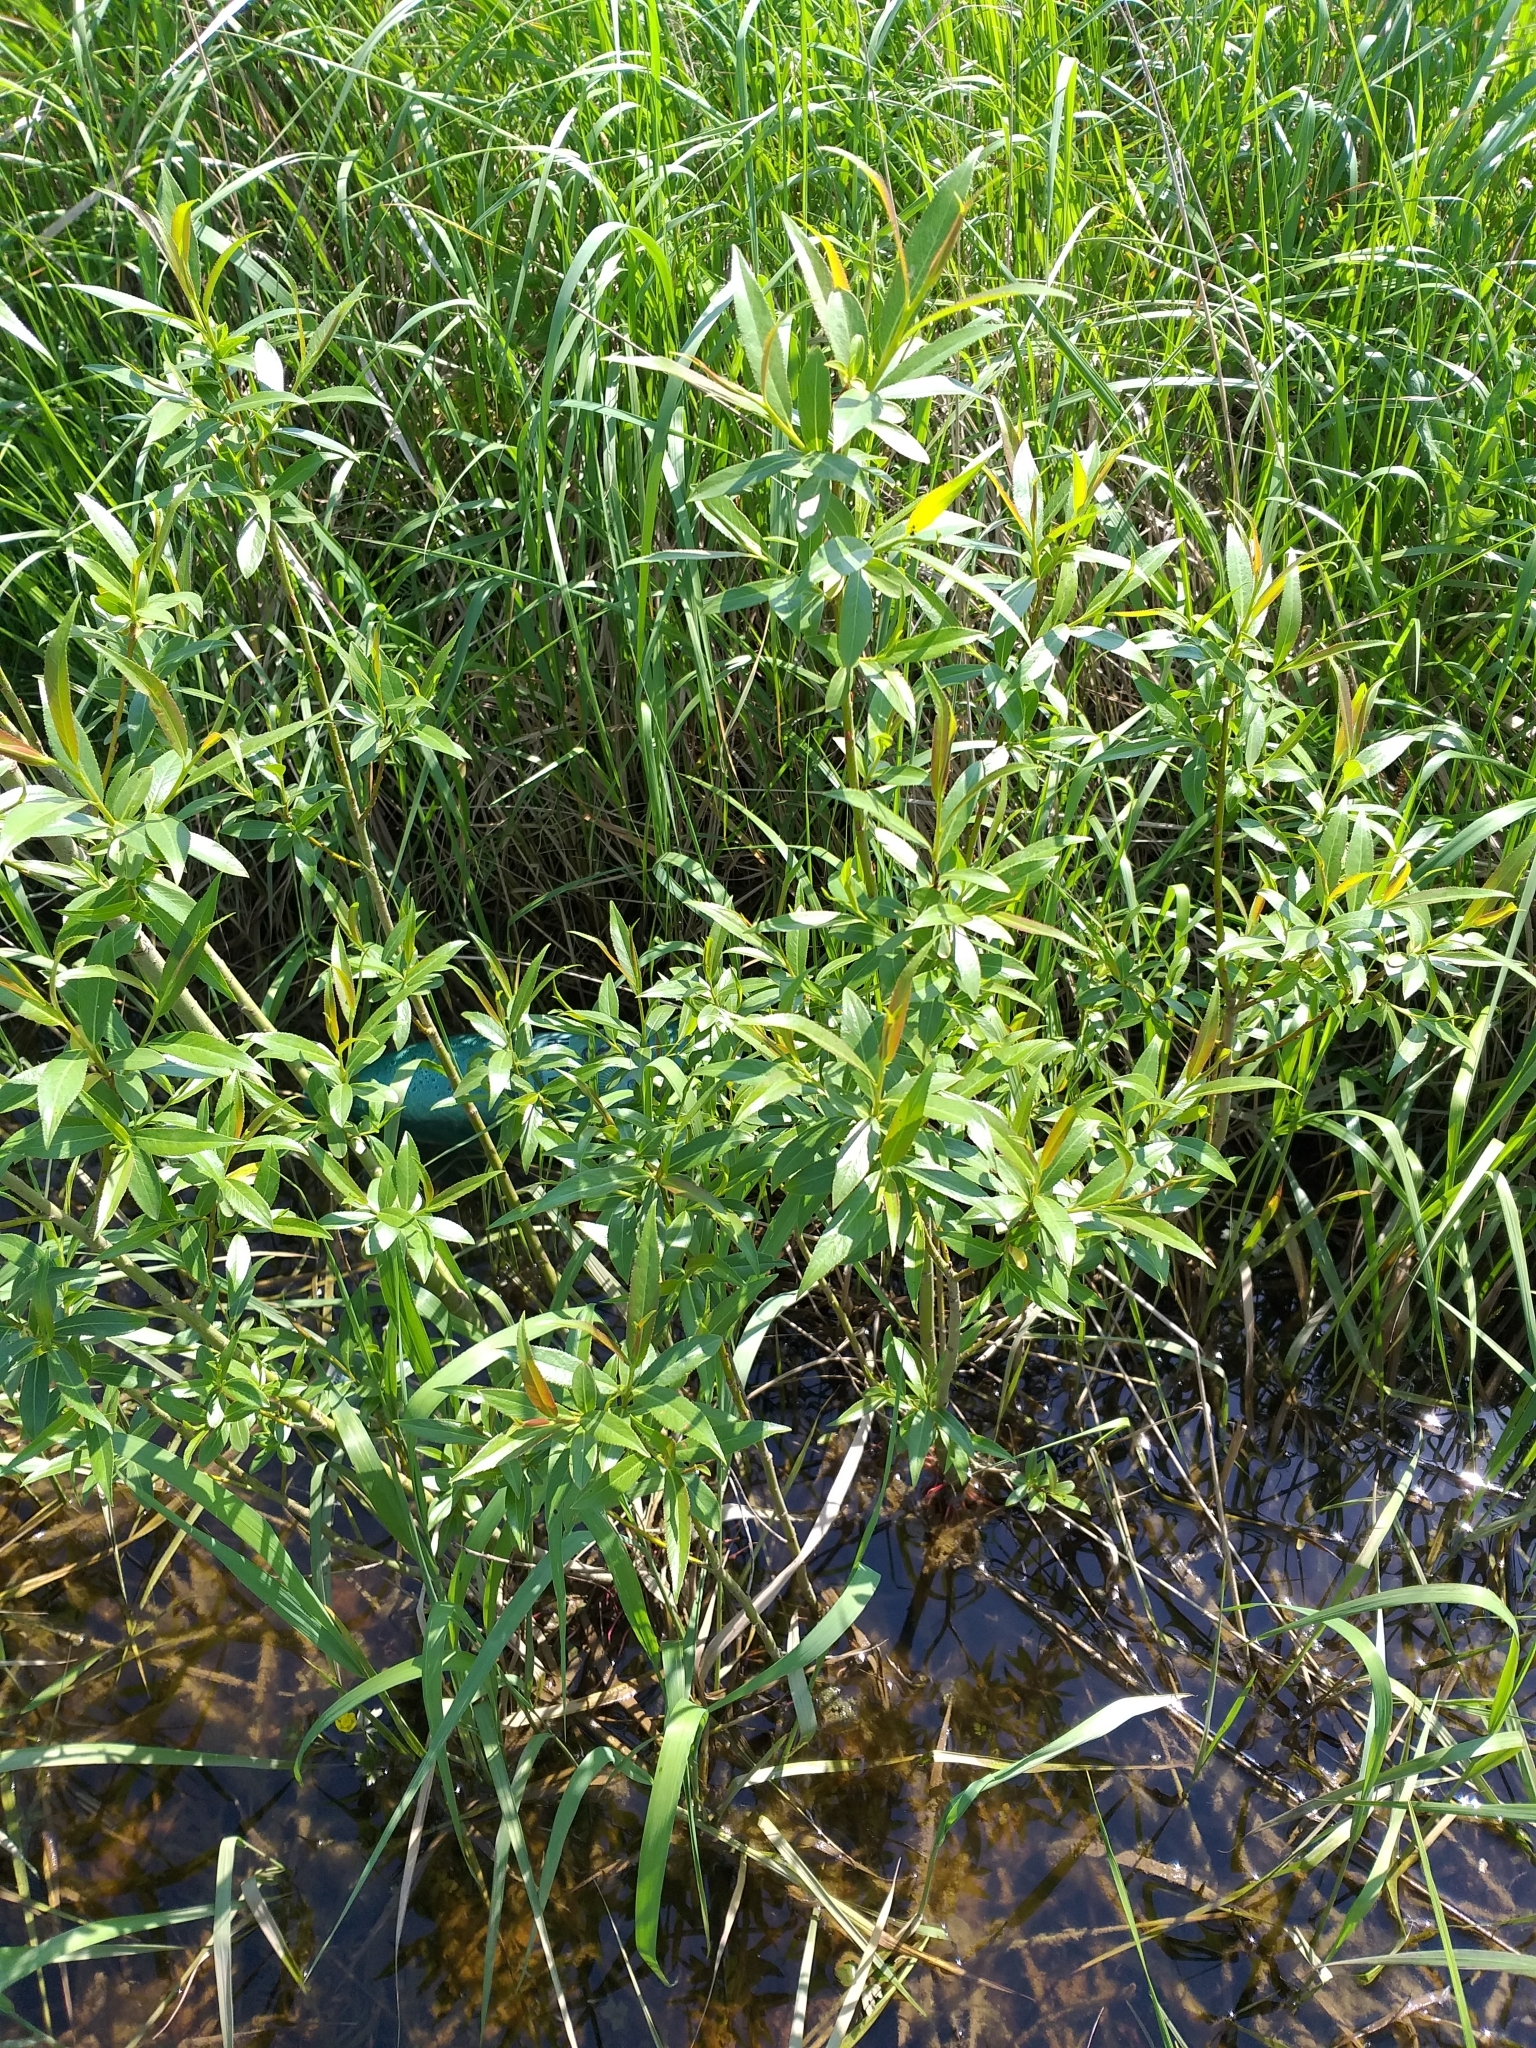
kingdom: Plantae
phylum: Tracheophyta
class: Magnoliopsida
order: Malpighiales
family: Salicaceae
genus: Salix
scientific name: Salix triandra
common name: Almond willow
